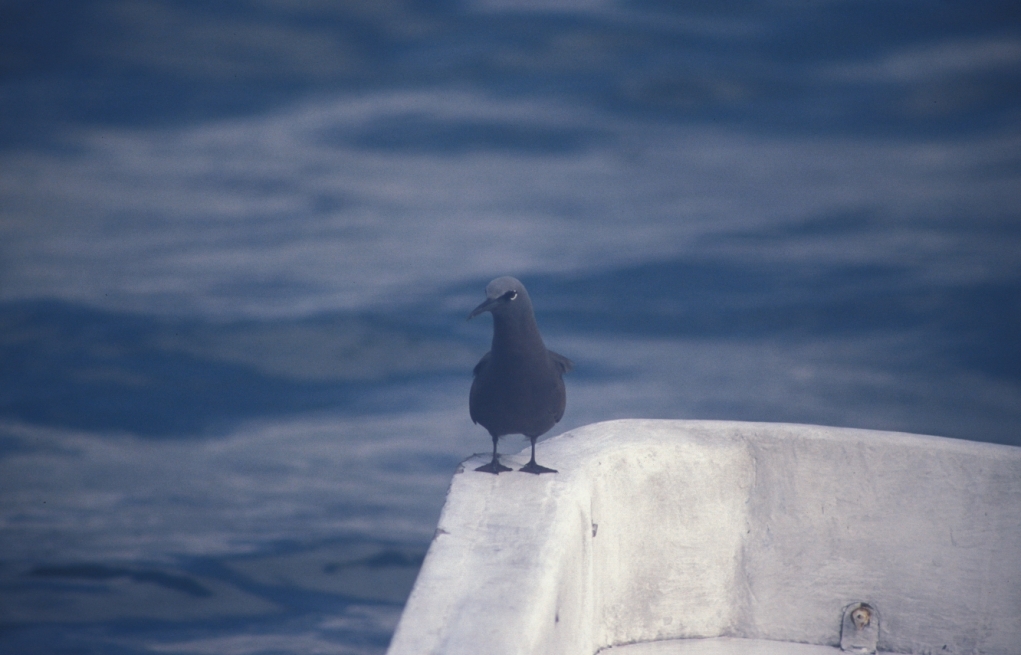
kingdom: Animalia
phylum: Chordata
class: Aves
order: Charadriiformes
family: Laridae
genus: Anous
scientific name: Anous stolidus
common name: Brown noddy
